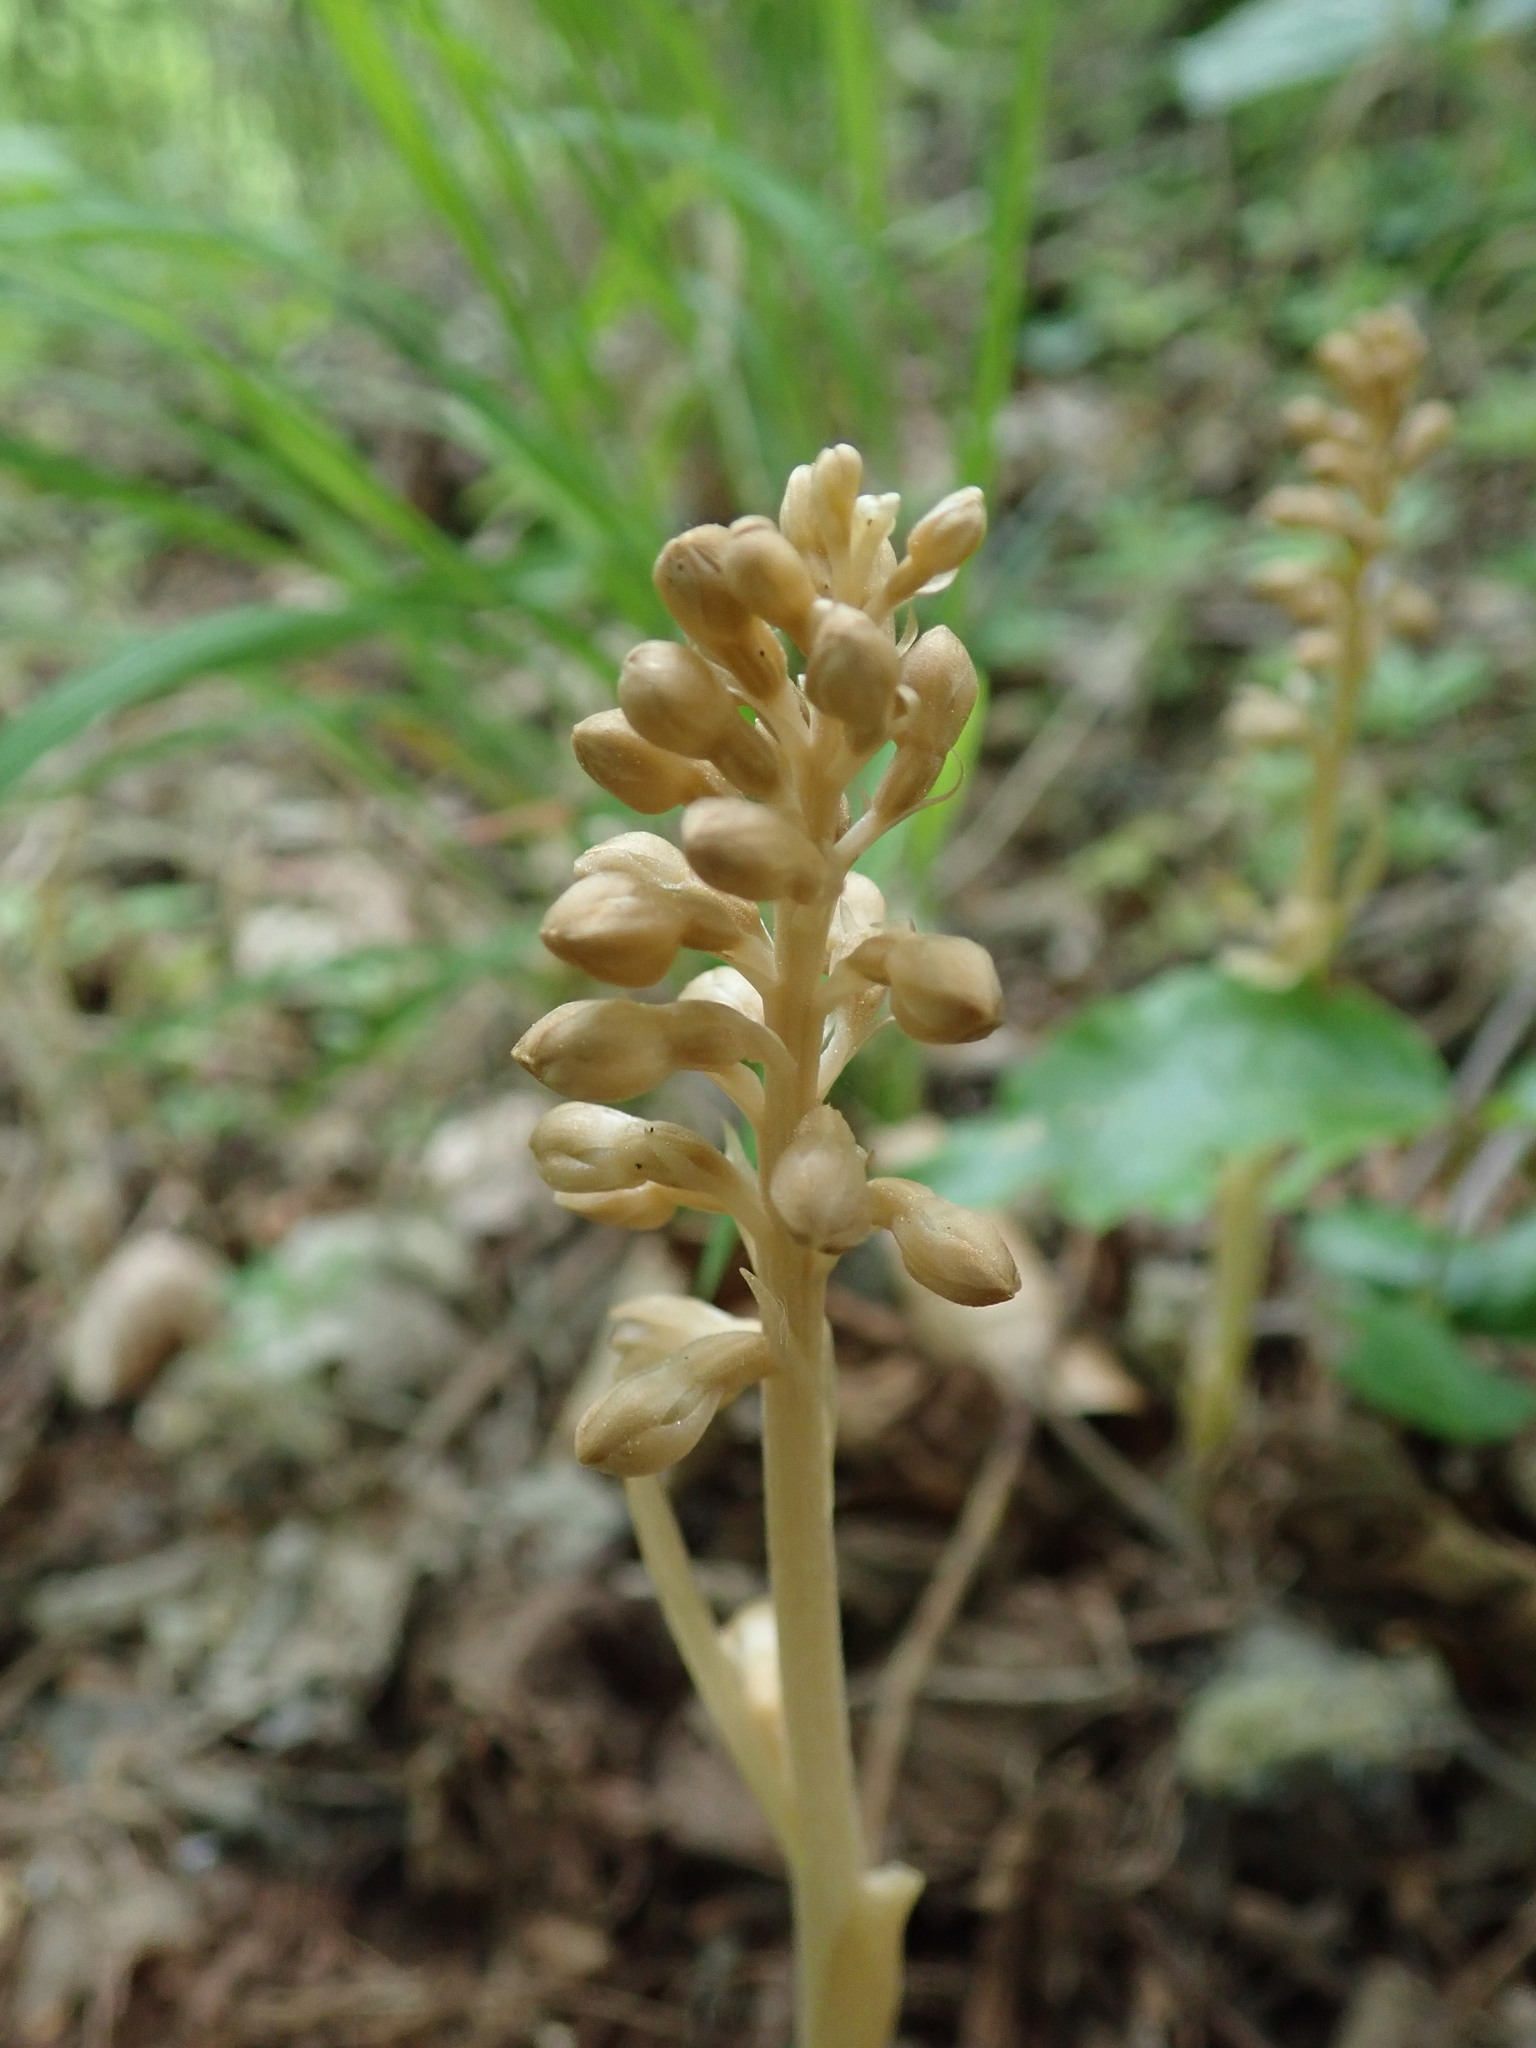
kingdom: Plantae
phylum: Tracheophyta
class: Liliopsida
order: Asparagales
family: Orchidaceae
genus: Neottia
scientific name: Neottia nidus-avis
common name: Bird's-nest orchid
